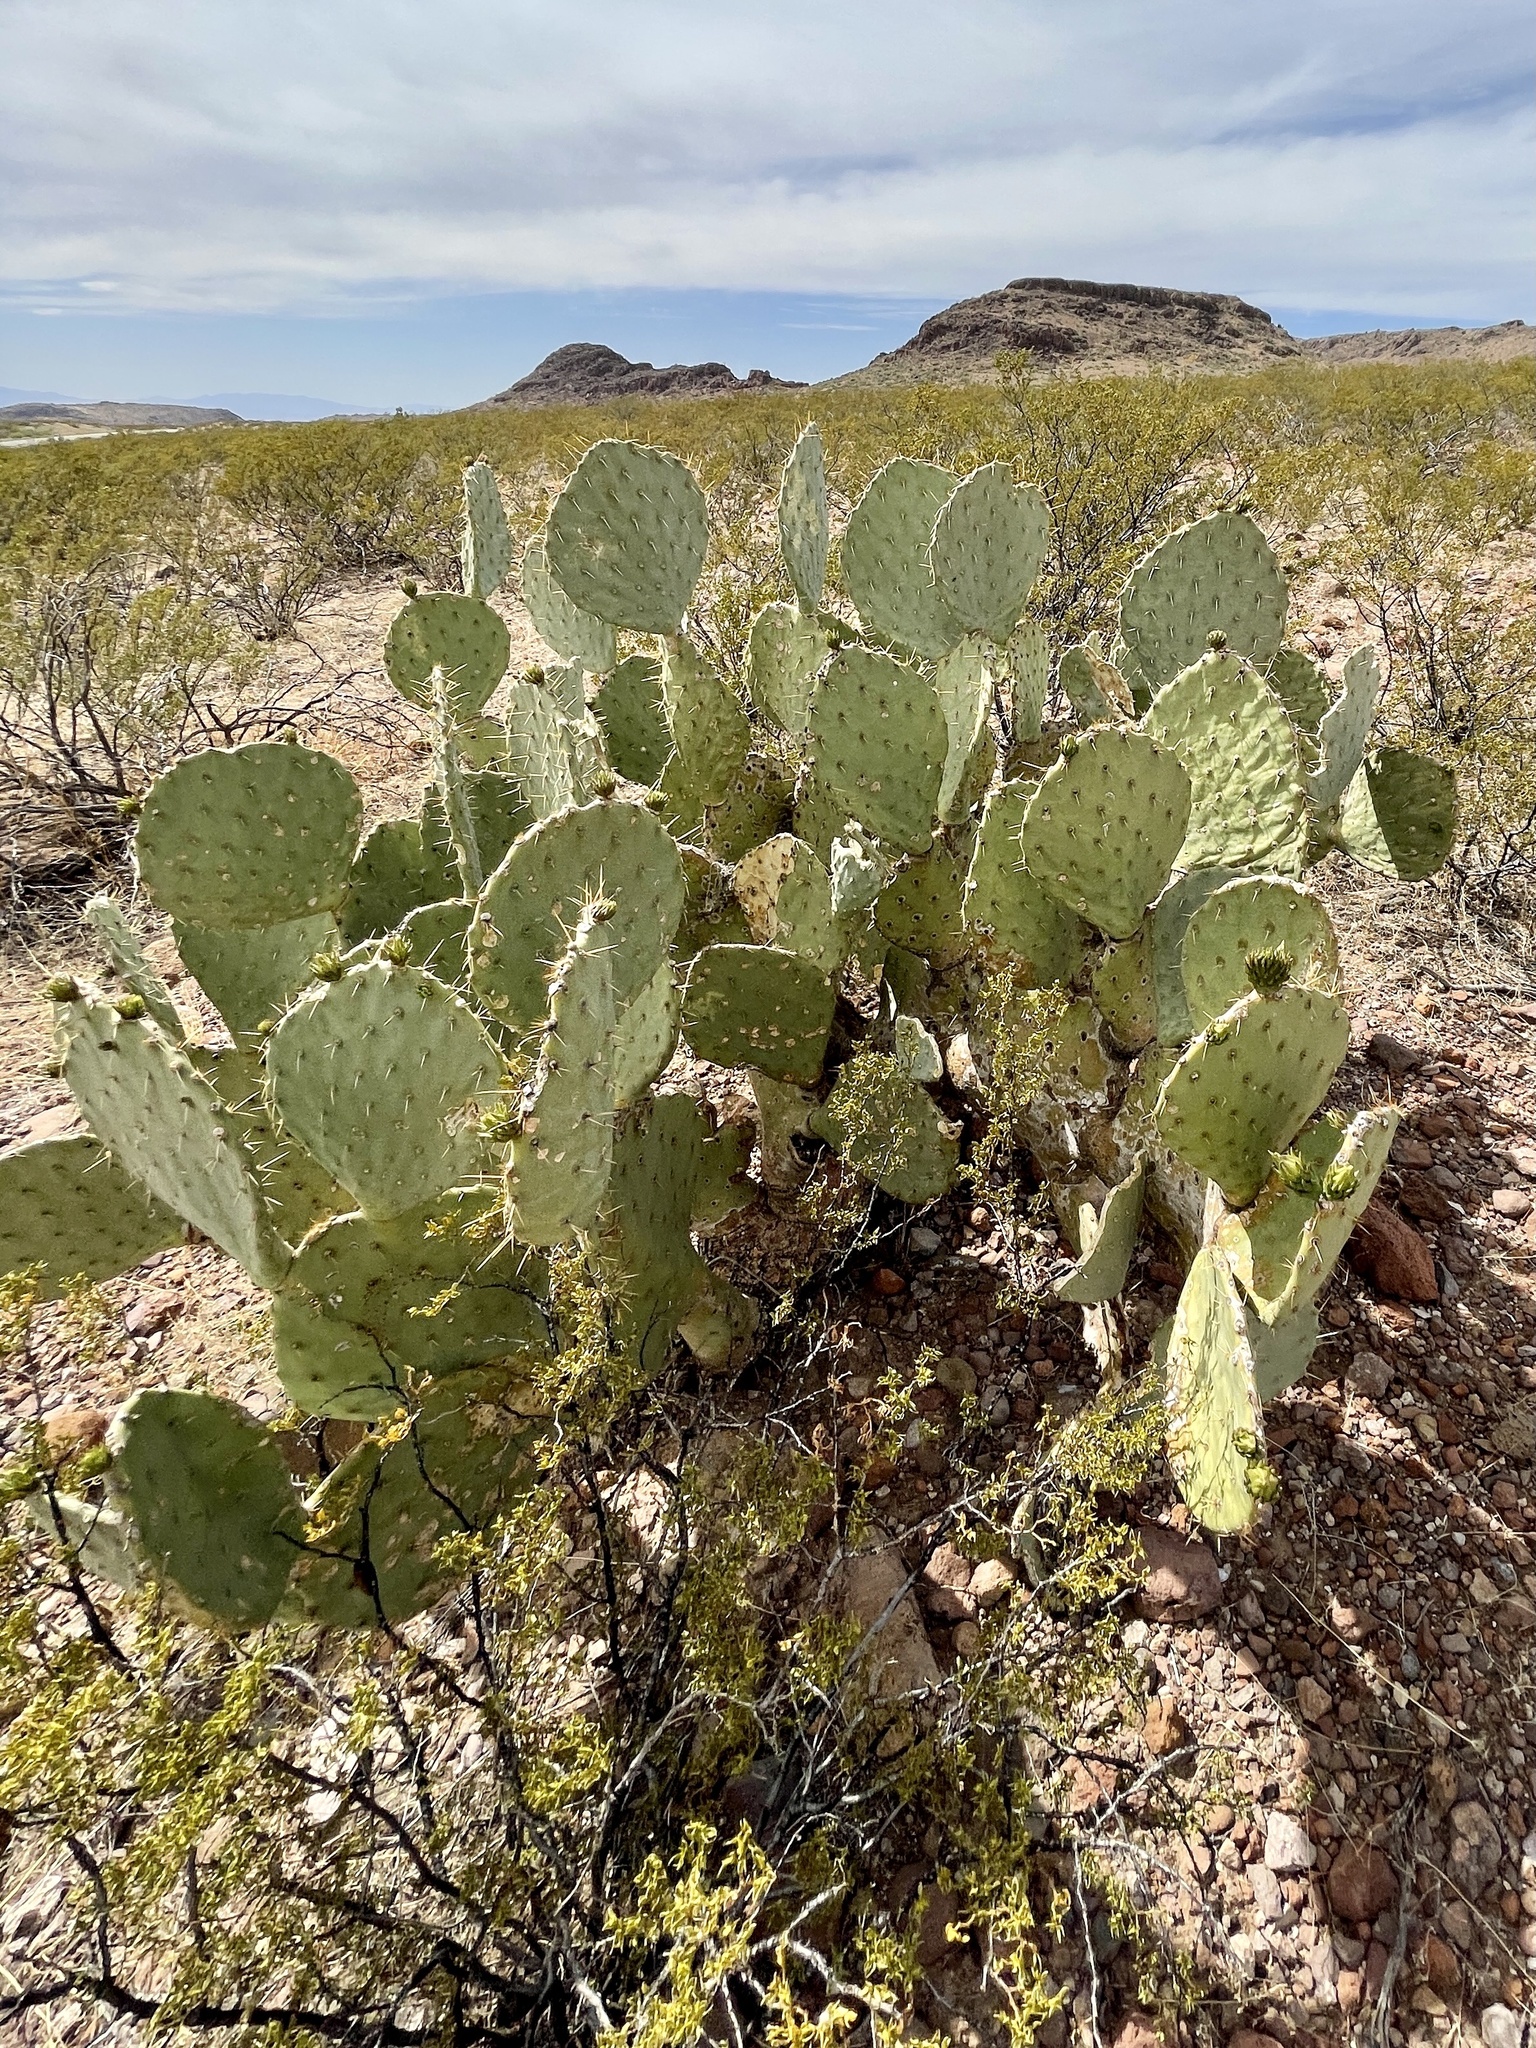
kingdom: Plantae
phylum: Tracheophyta
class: Magnoliopsida
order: Caryophyllales
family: Cactaceae
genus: Opuntia
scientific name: Opuntia engelmannii
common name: Cactus-apple
